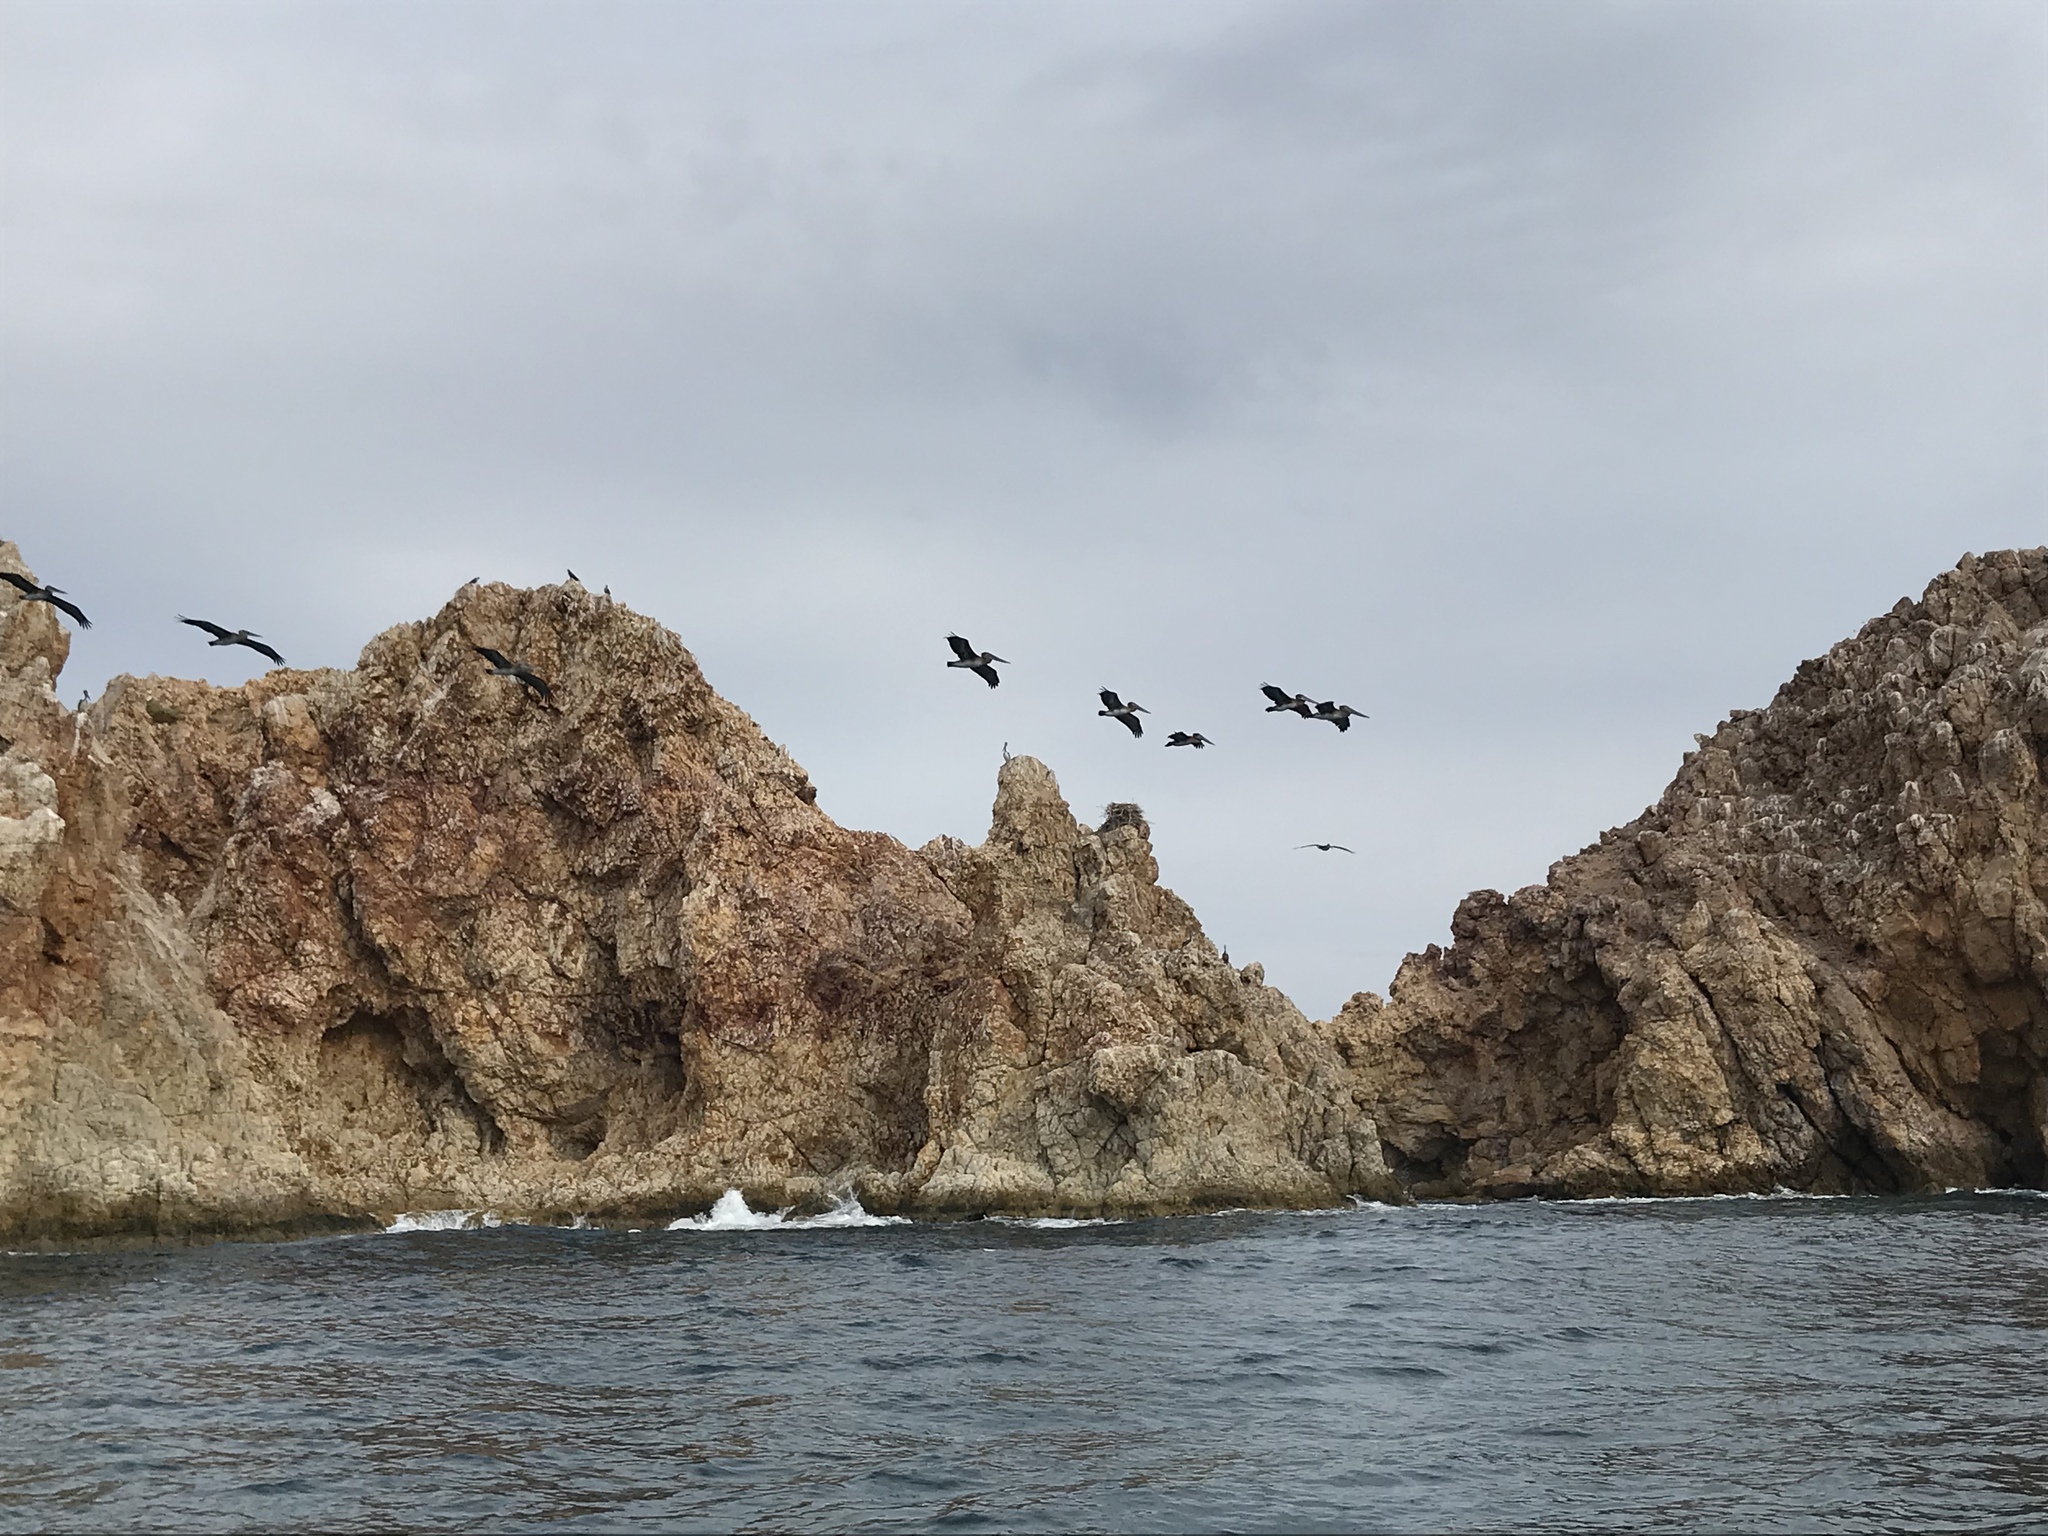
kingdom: Animalia
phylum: Chordata
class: Aves
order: Pelecaniformes
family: Pelecanidae
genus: Pelecanus
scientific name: Pelecanus occidentalis
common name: Brown pelican
